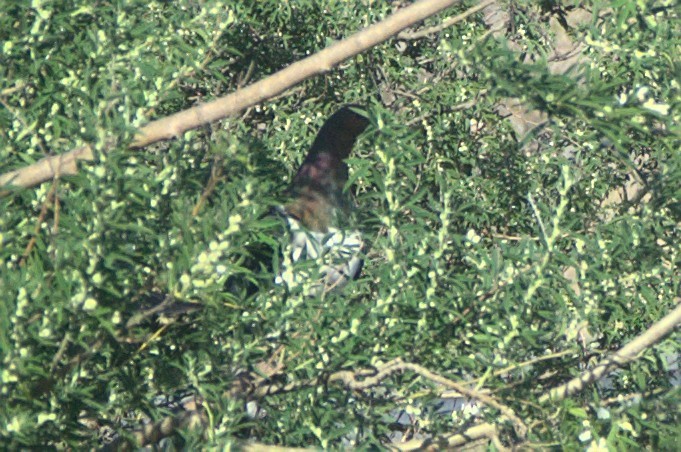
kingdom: Animalia
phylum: Chordata
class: Aves
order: Columbiformes
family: Columbidae
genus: Hemiphaga
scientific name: Hemiphaga novaeseelandiae
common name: New zealand pigeon
